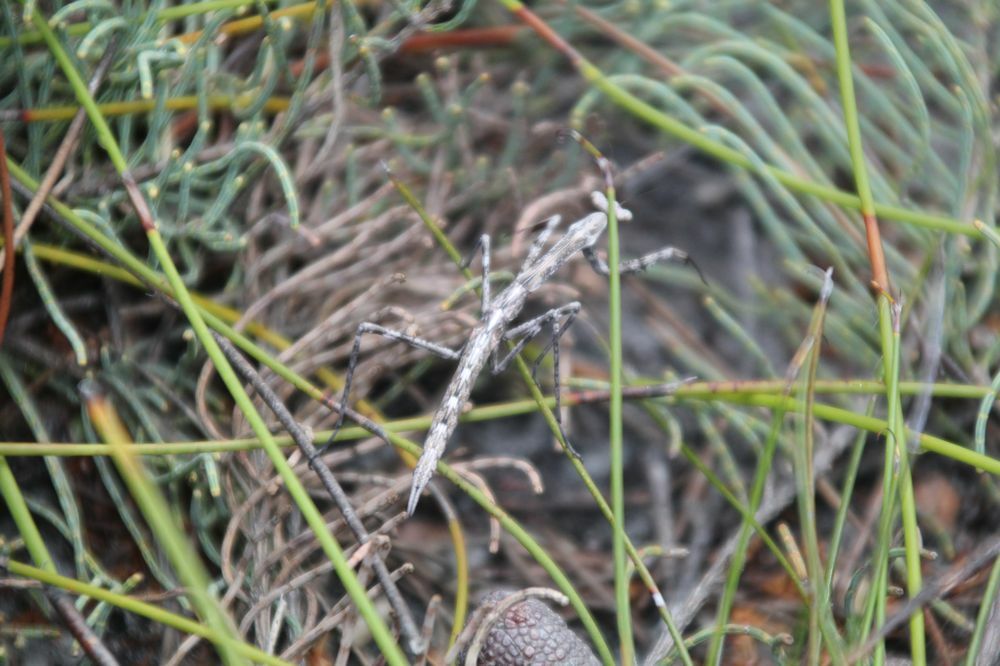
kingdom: Animalia
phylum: Arthropoda
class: Insecta
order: Mantodea
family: Mantidae
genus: Archimantis
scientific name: Archimantis sobrina
